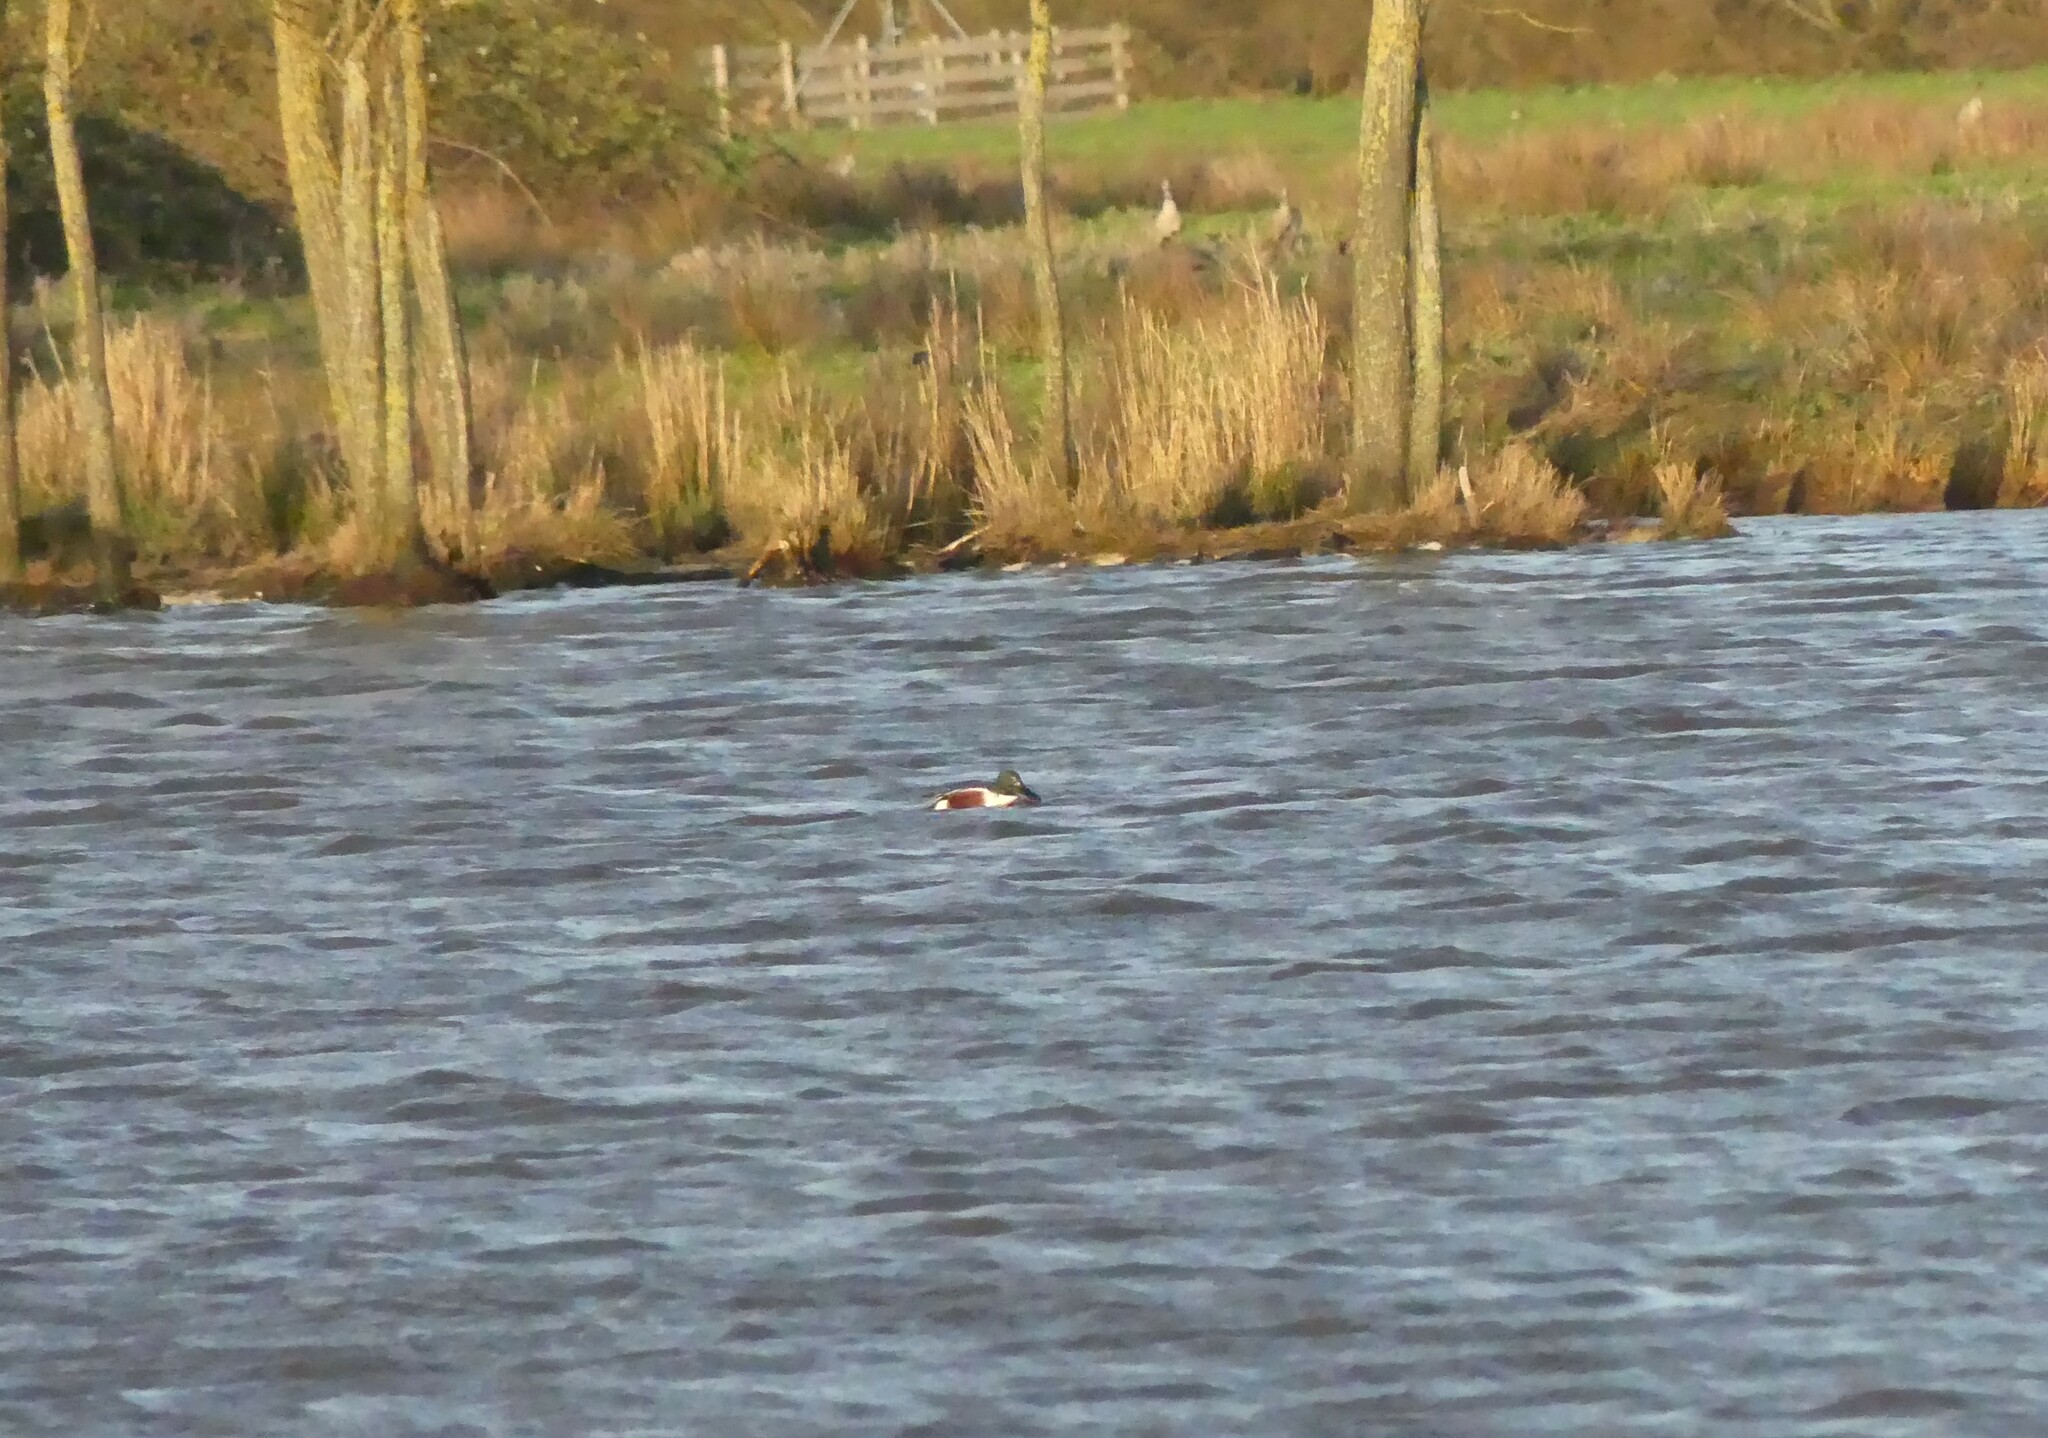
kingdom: Animalia
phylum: Chordata
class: Aves
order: Anseriformes
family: Anatidae
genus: Spatula
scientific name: Spatula clypeata
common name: Northern shoveler
